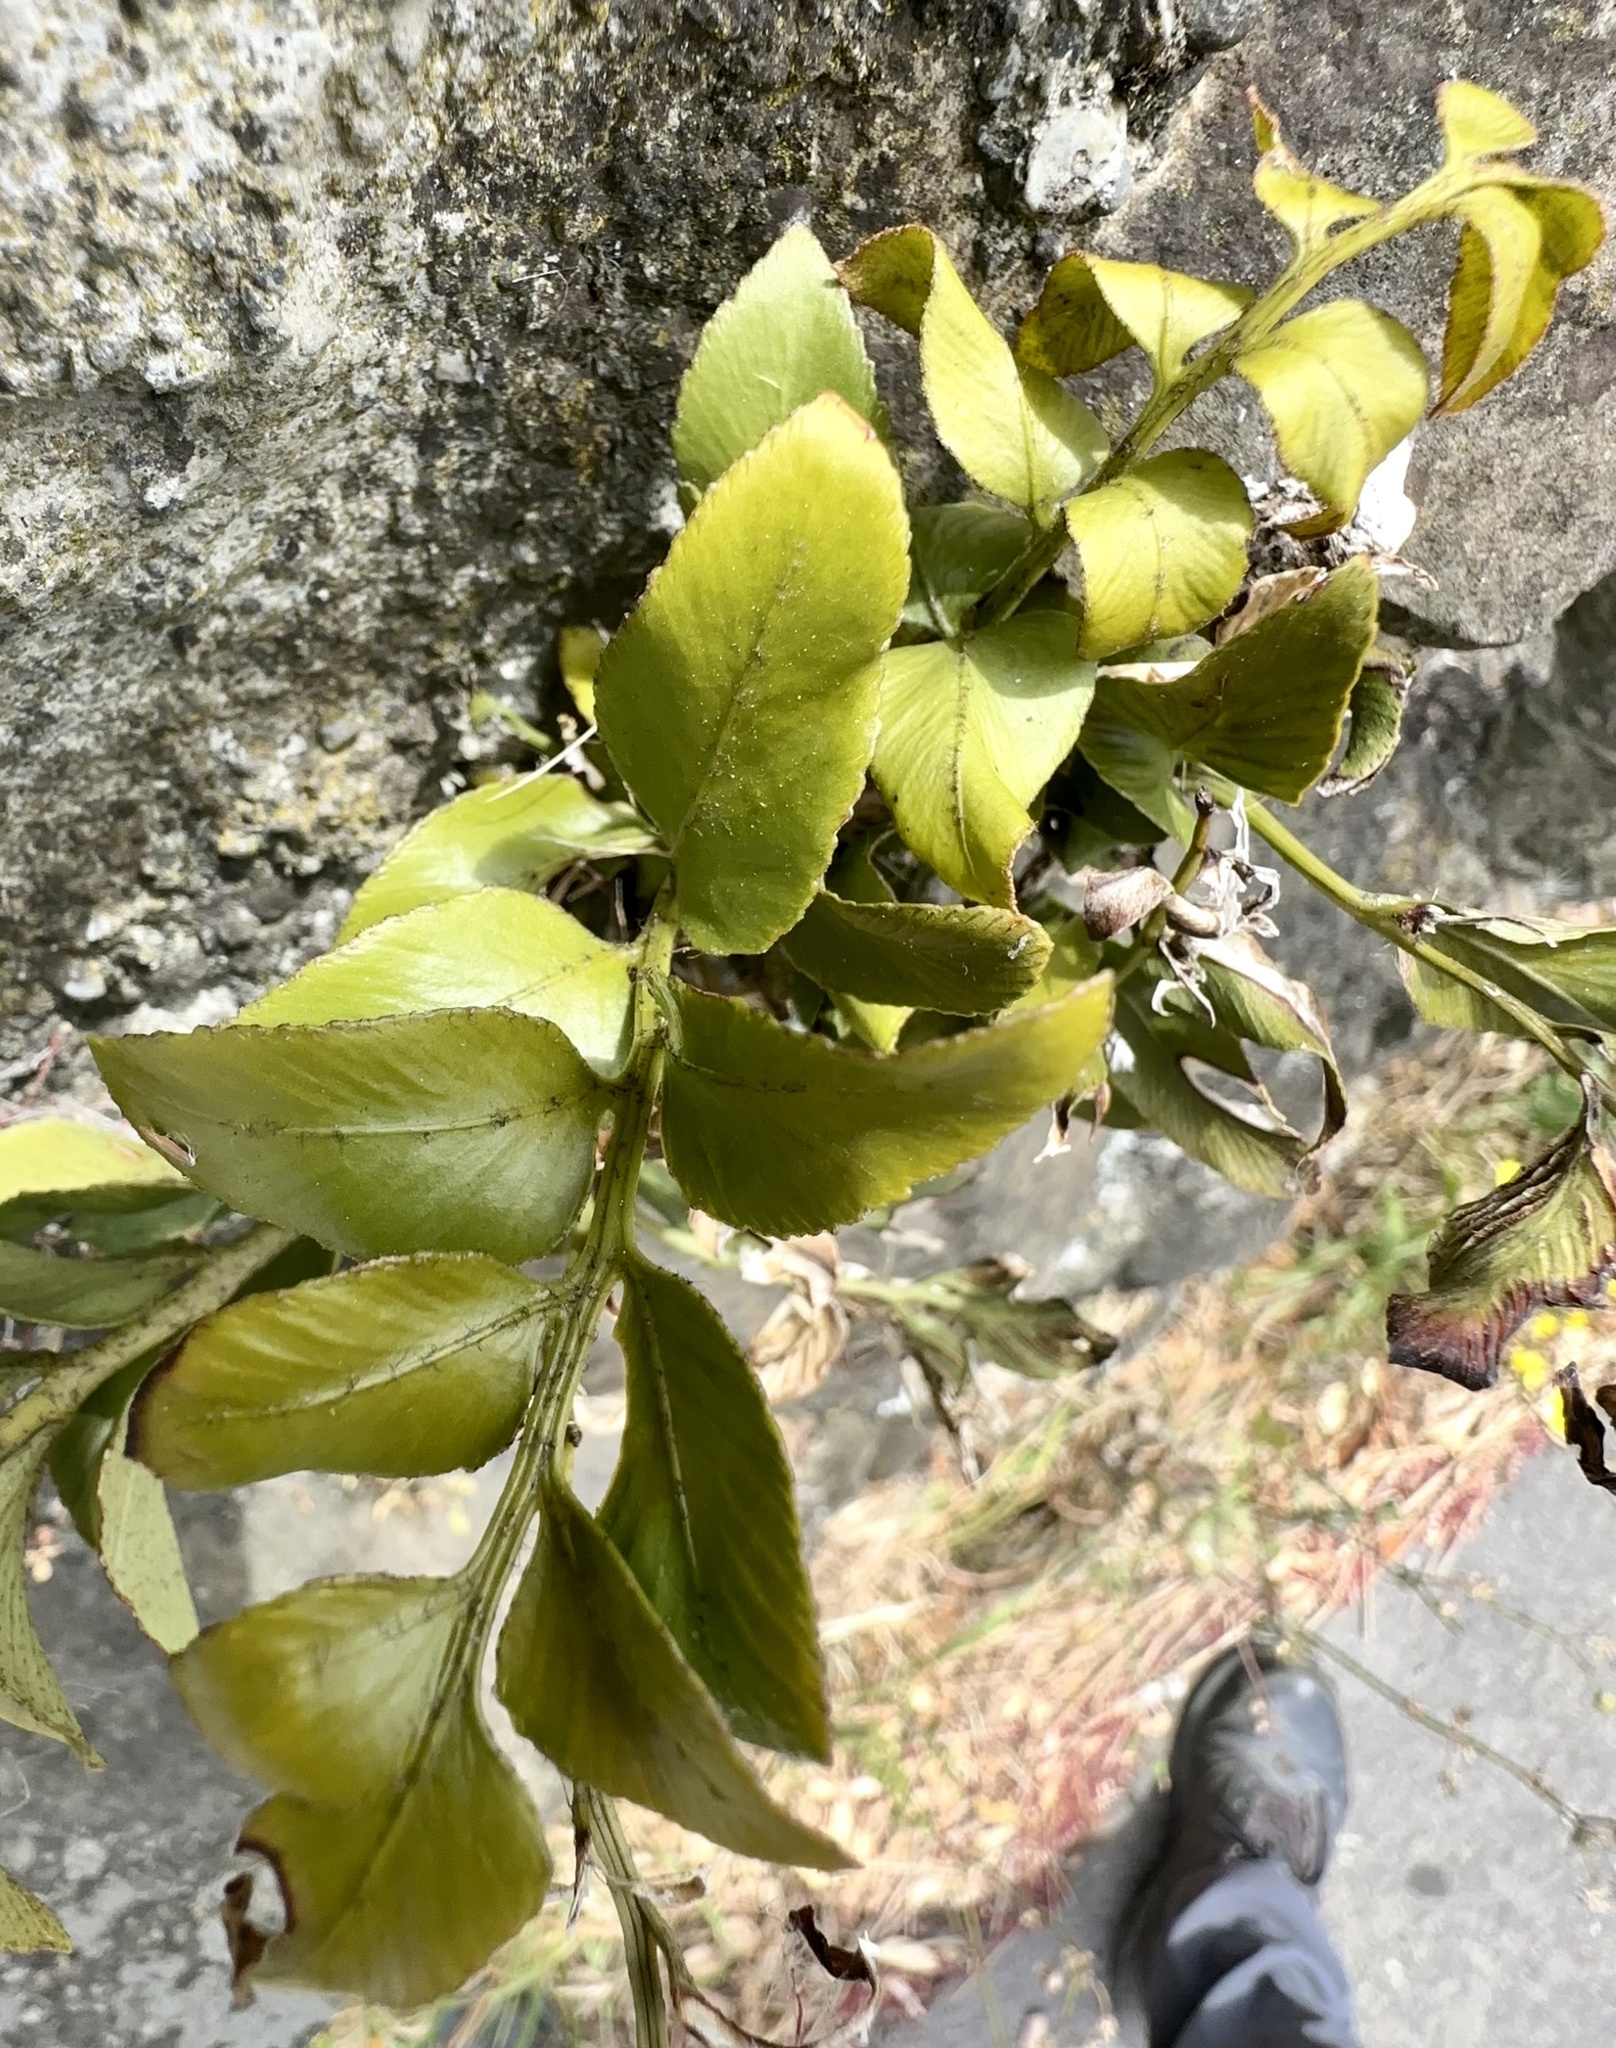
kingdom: Plantae
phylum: Tracheophyta
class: Polypodiopsida
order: Polypodiales
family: Aspleniaceae
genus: Asplenium
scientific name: Asplenium oblongifolium
